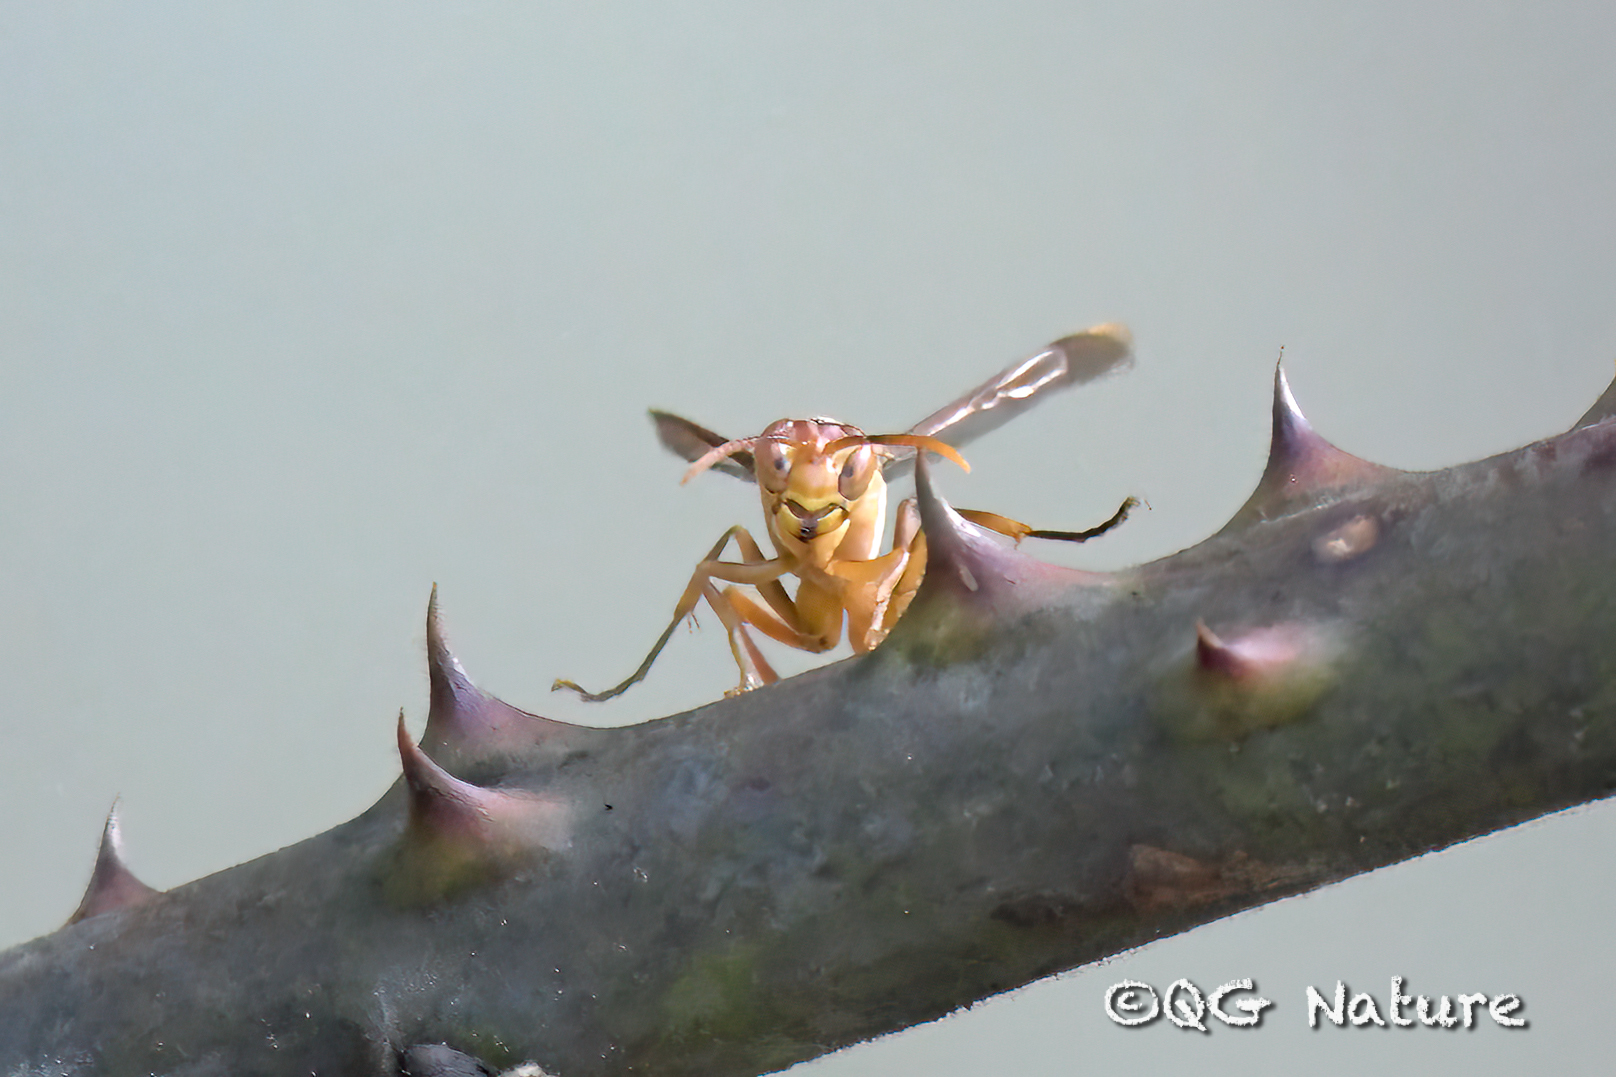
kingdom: Animalia
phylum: Arthropoda
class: Insecta
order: Hymenoptera
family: Vespidae
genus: Parapolybia
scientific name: Parapolybia
